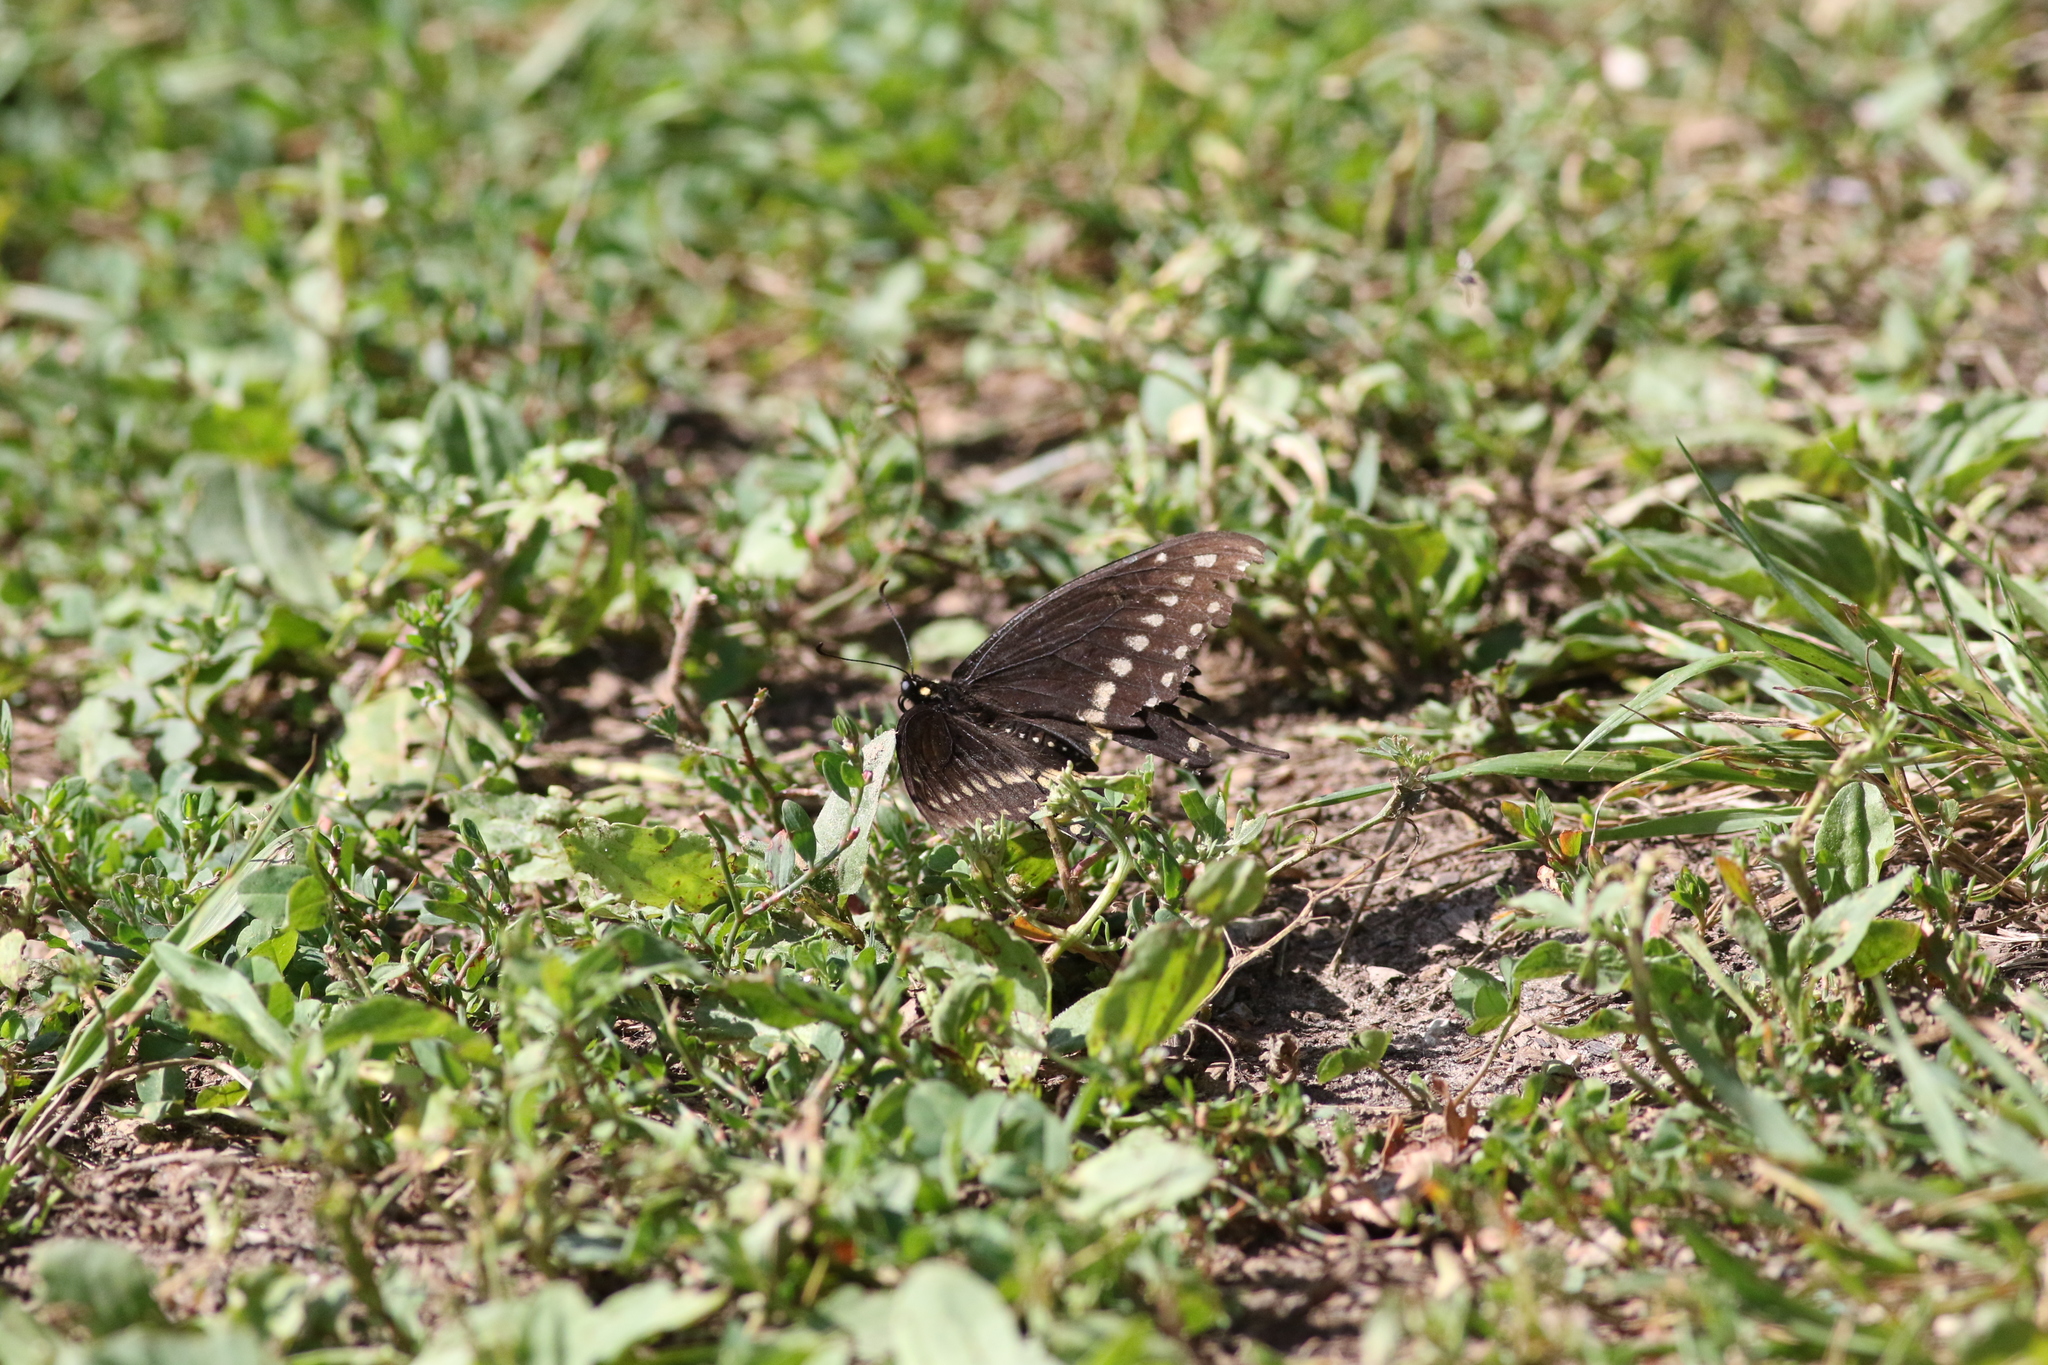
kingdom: Animalia
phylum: Arthropoda
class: Insecta
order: Lepidoptera
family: Papilionidae
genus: Papilio
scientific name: Papilio polyxenes
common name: Black swallowtail
